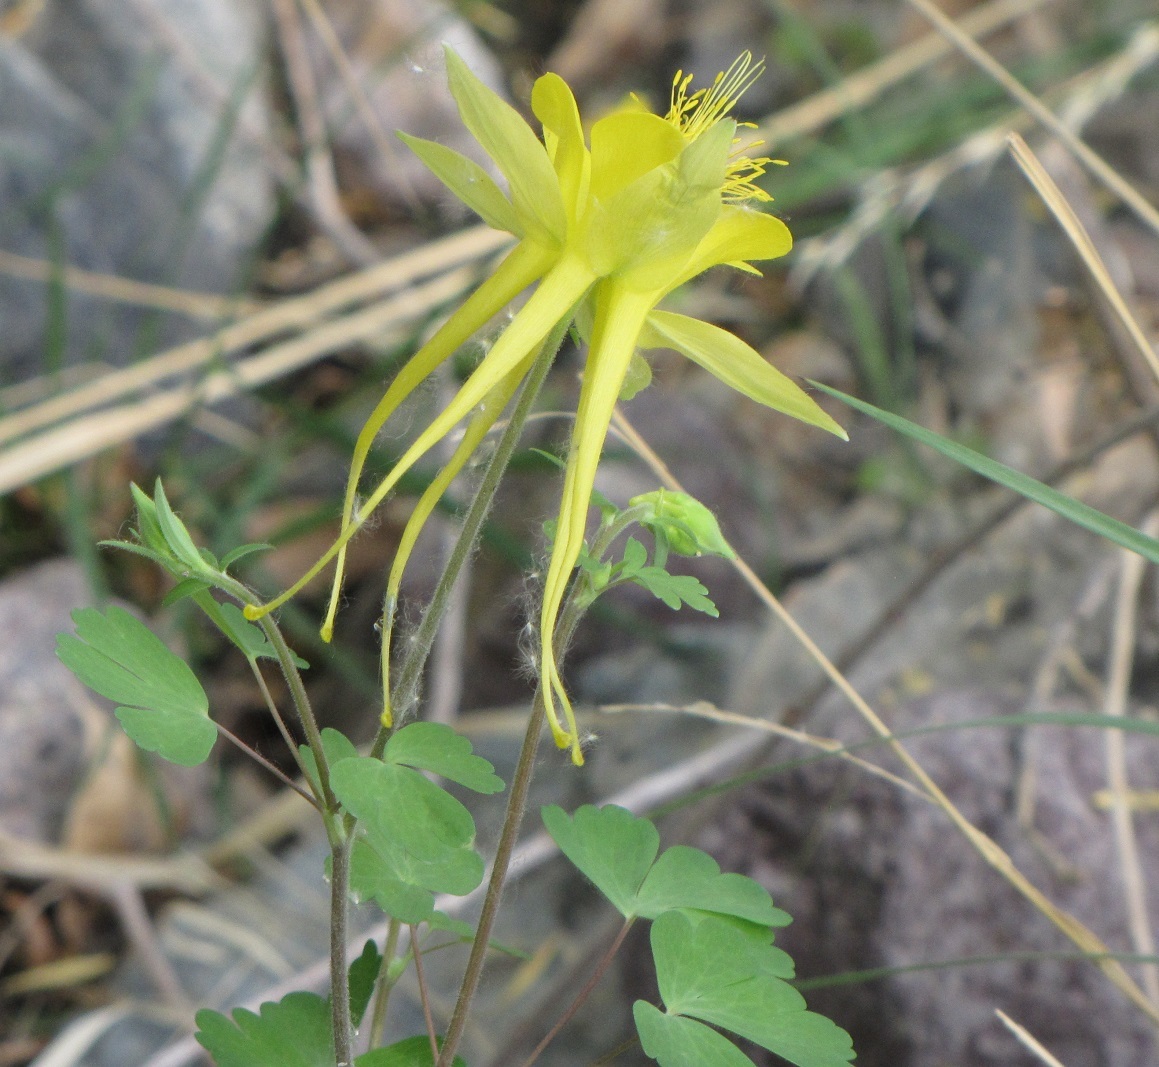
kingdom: Plantae
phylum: Tracheophyta
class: Magnoliopsida
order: Ranunculales
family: Ranunculaceae
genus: Aquilegia
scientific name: Aquilegia chrysantha
